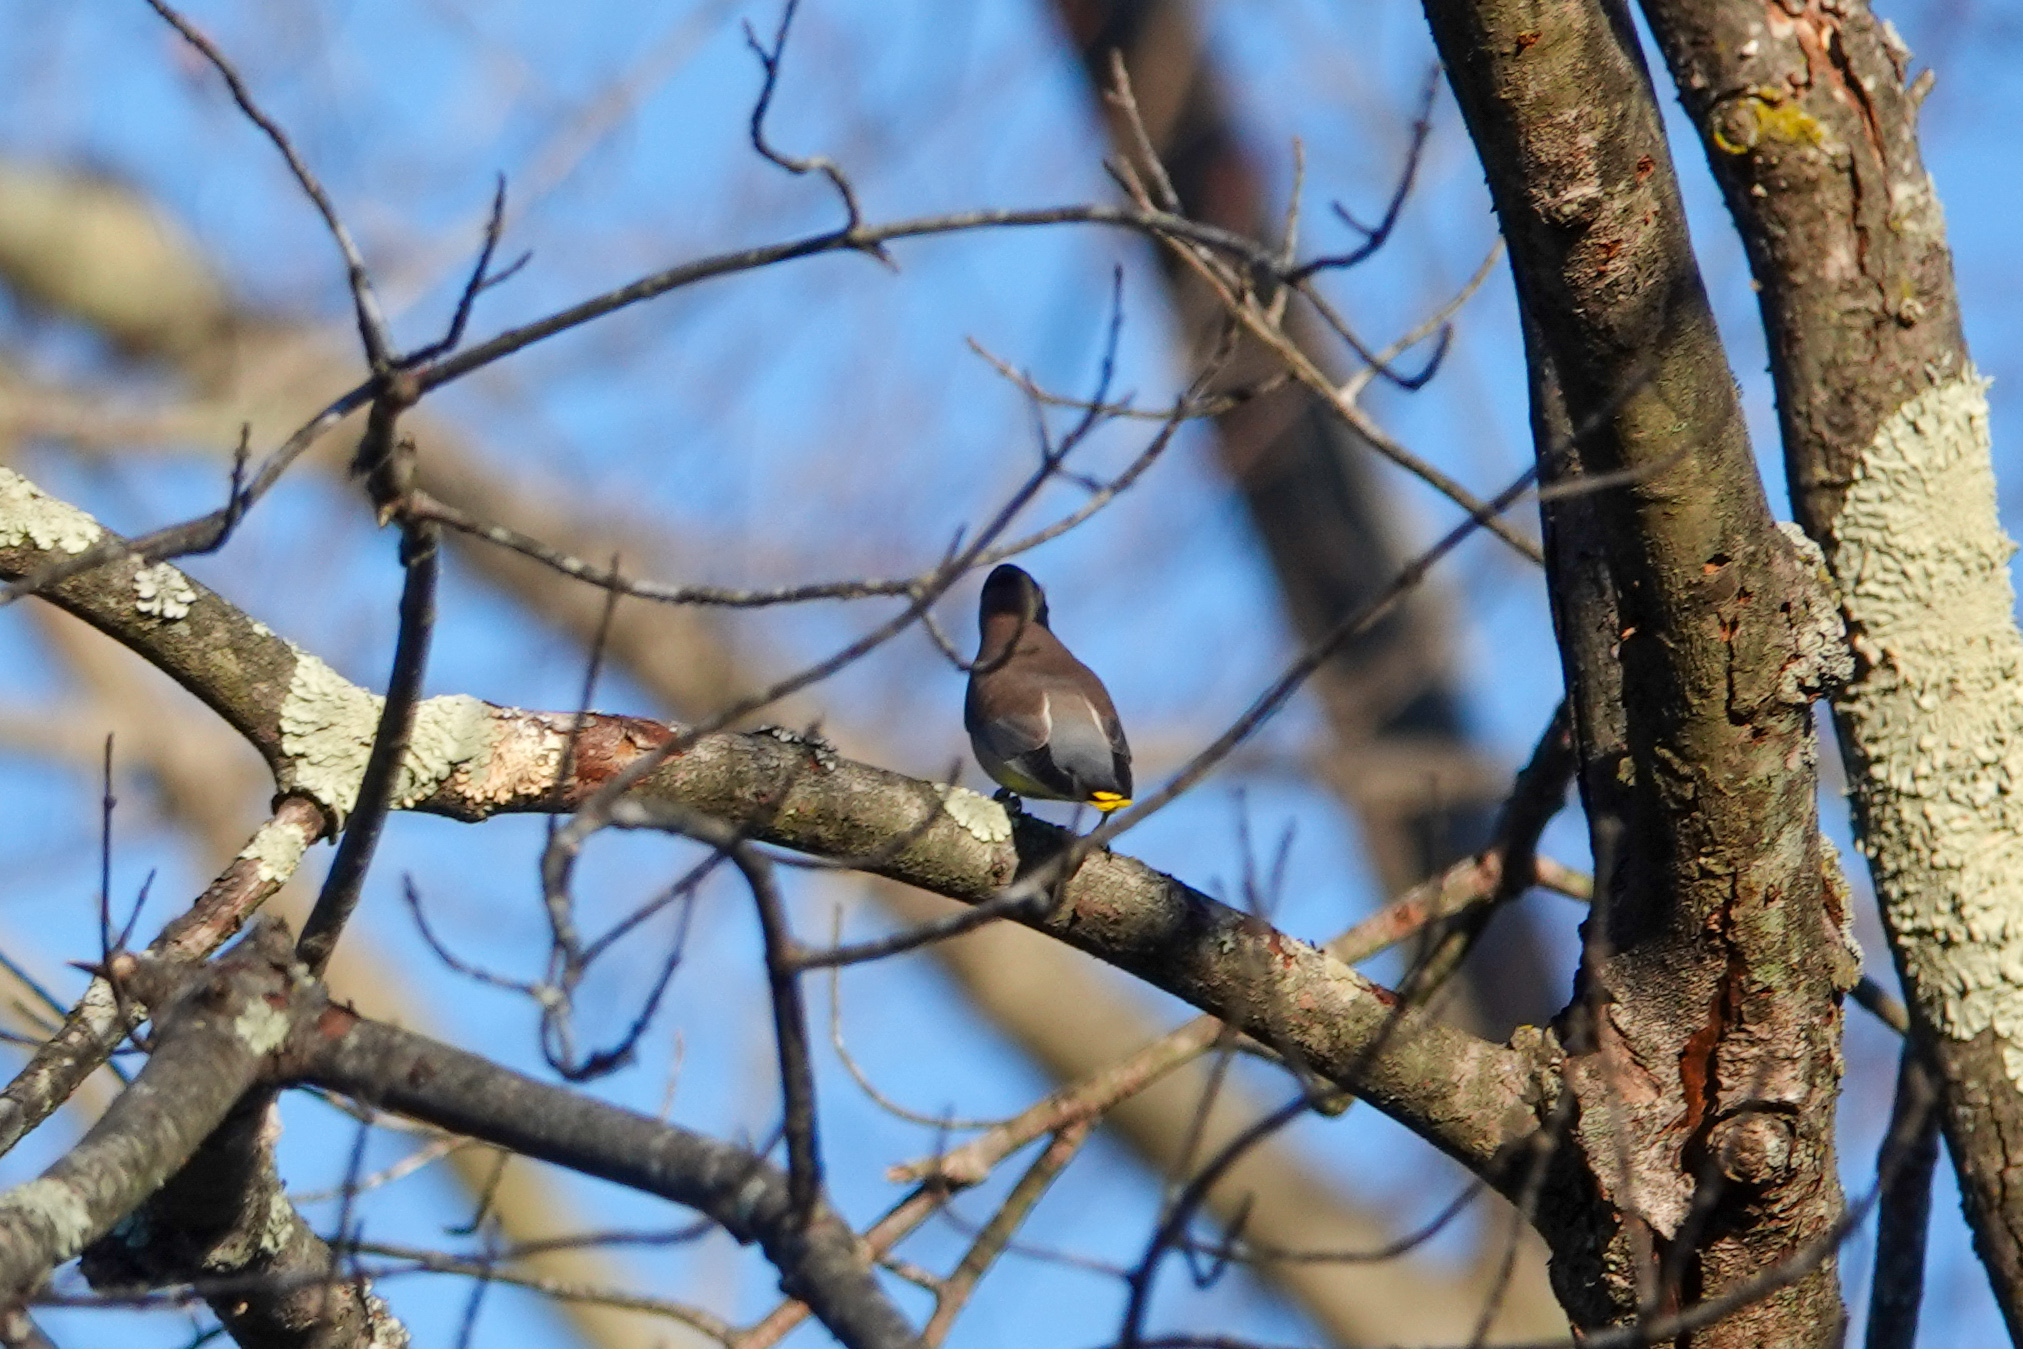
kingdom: Animalia
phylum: Chordata
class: Aves
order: Passeriformes
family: Bombycillidae
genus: Bombycilla
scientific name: Bombycilla cedrorum
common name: Cedar waxwing
